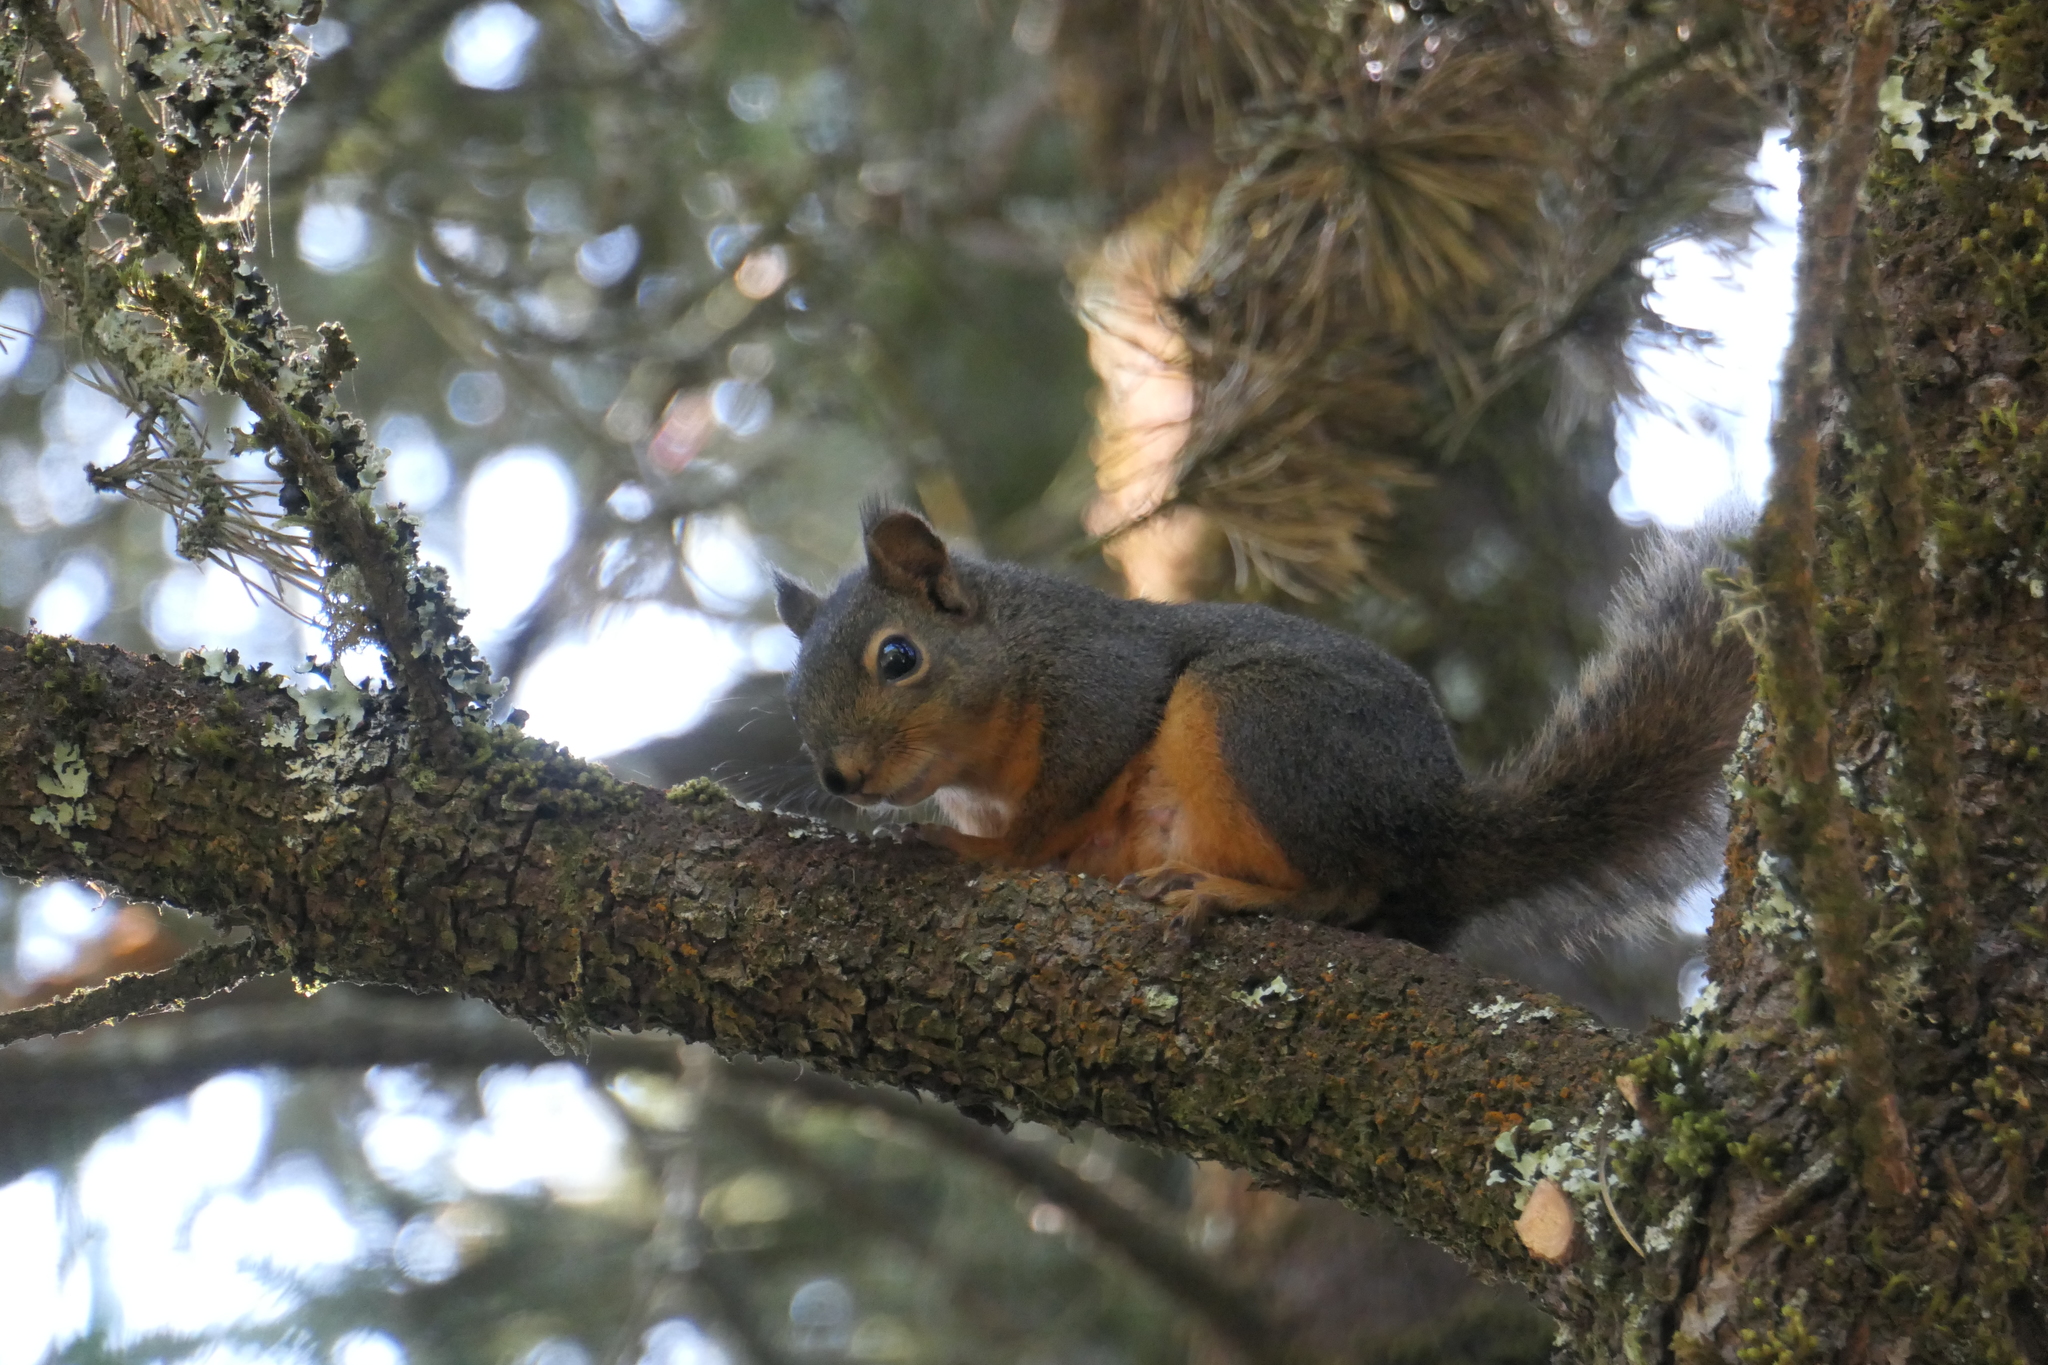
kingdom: Animalia
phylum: Chordata
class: Mammalia
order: Rodentia
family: Sciuridae
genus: Tamiasciurus
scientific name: Tamiasciurus douglasii
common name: Douglas's squirrel
